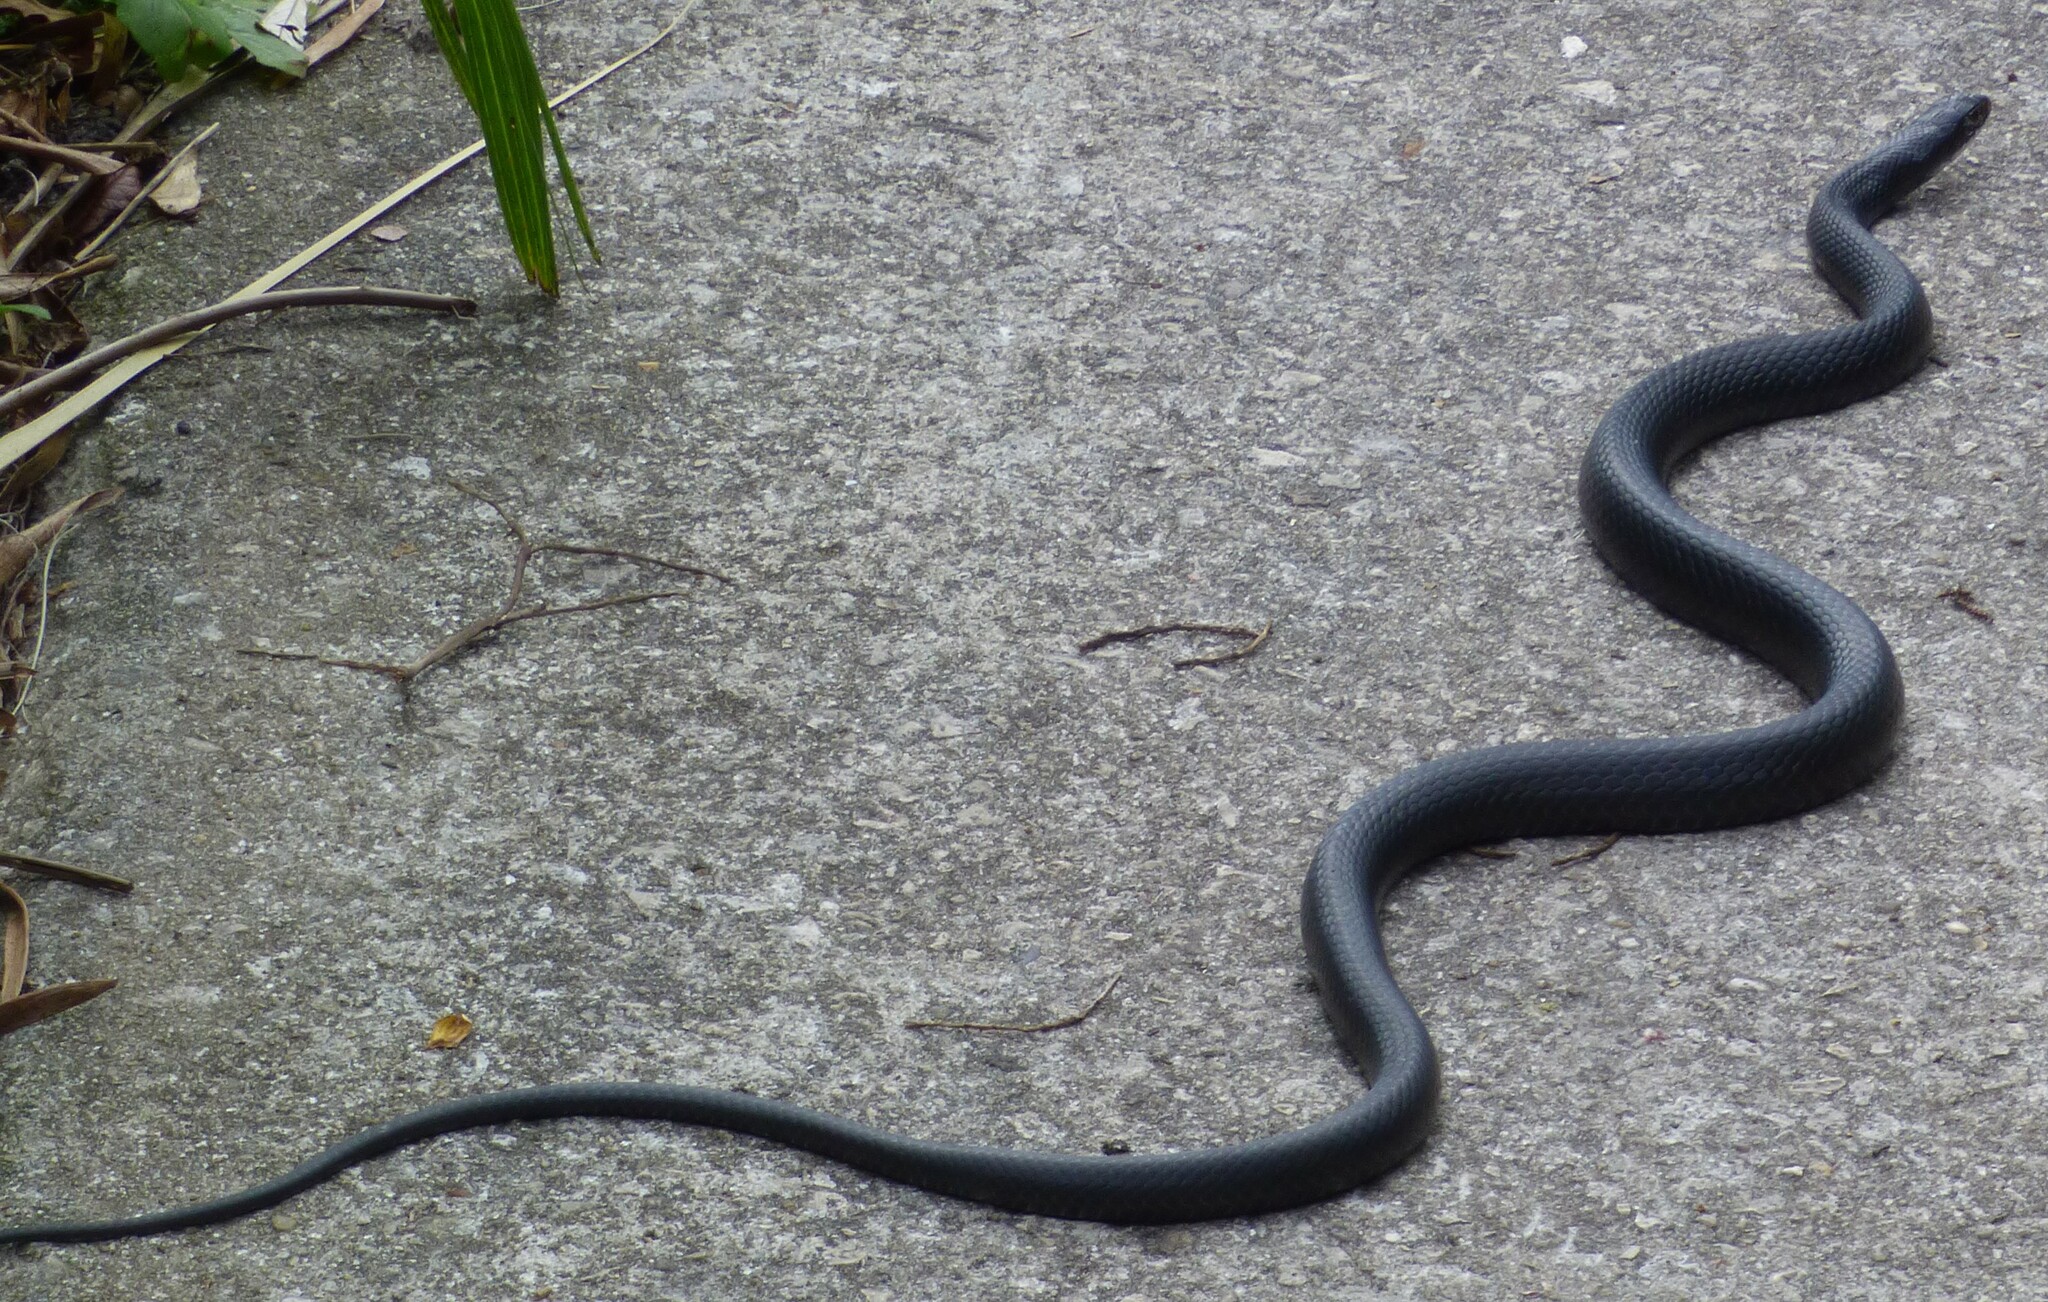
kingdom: Animalia
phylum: Chordata
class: Squamata
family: Colubridae
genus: Coluber
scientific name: Coluber constrictor
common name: Eastern racer
